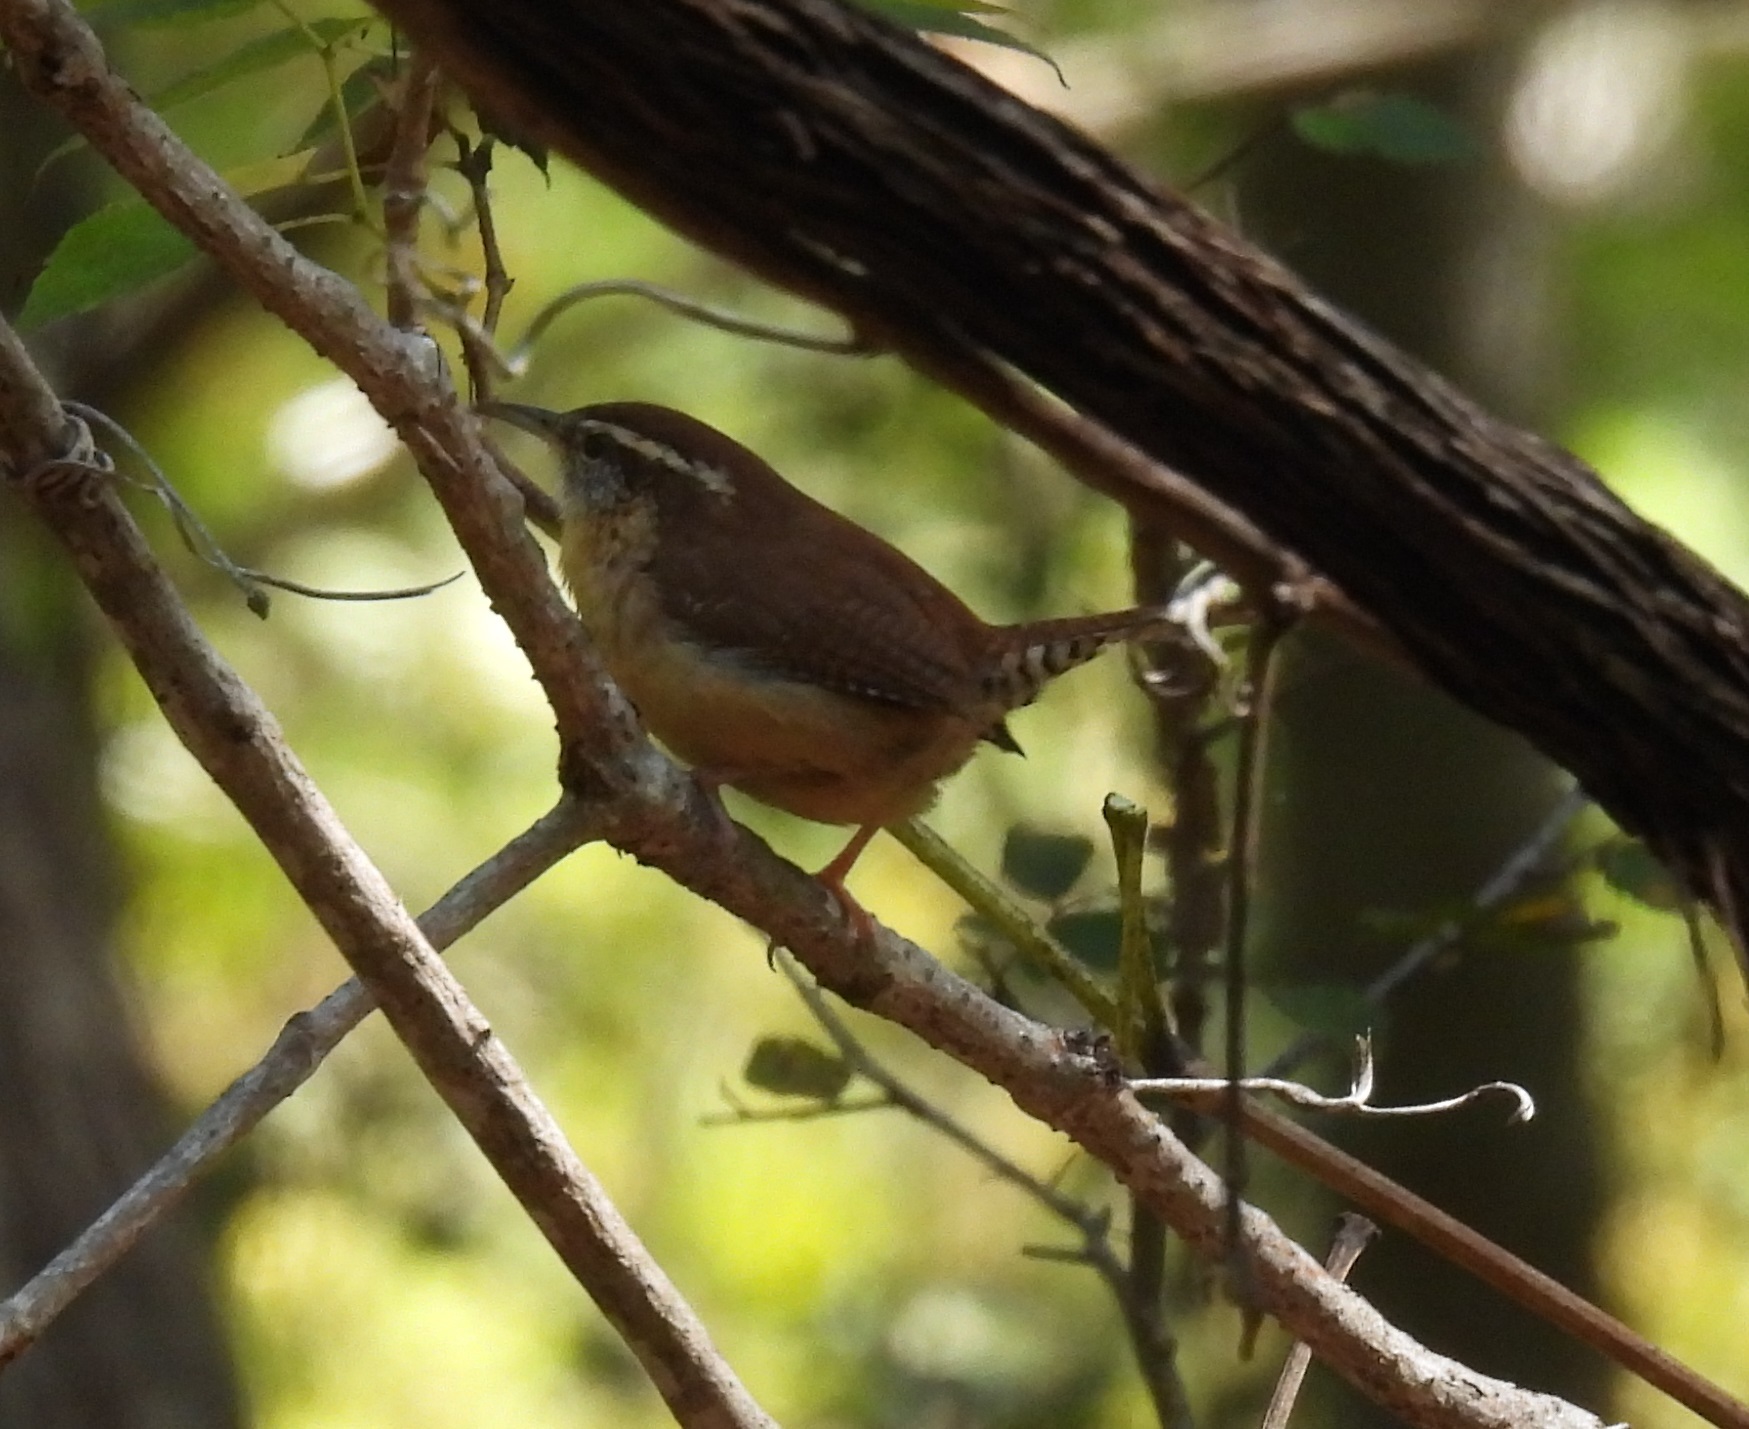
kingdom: Animalia
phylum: Chordata
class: Aves
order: Passeriformes
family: Troglodytidae
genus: Thryothorus
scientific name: Thryothorus ludovicianus
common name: Carolina wren
